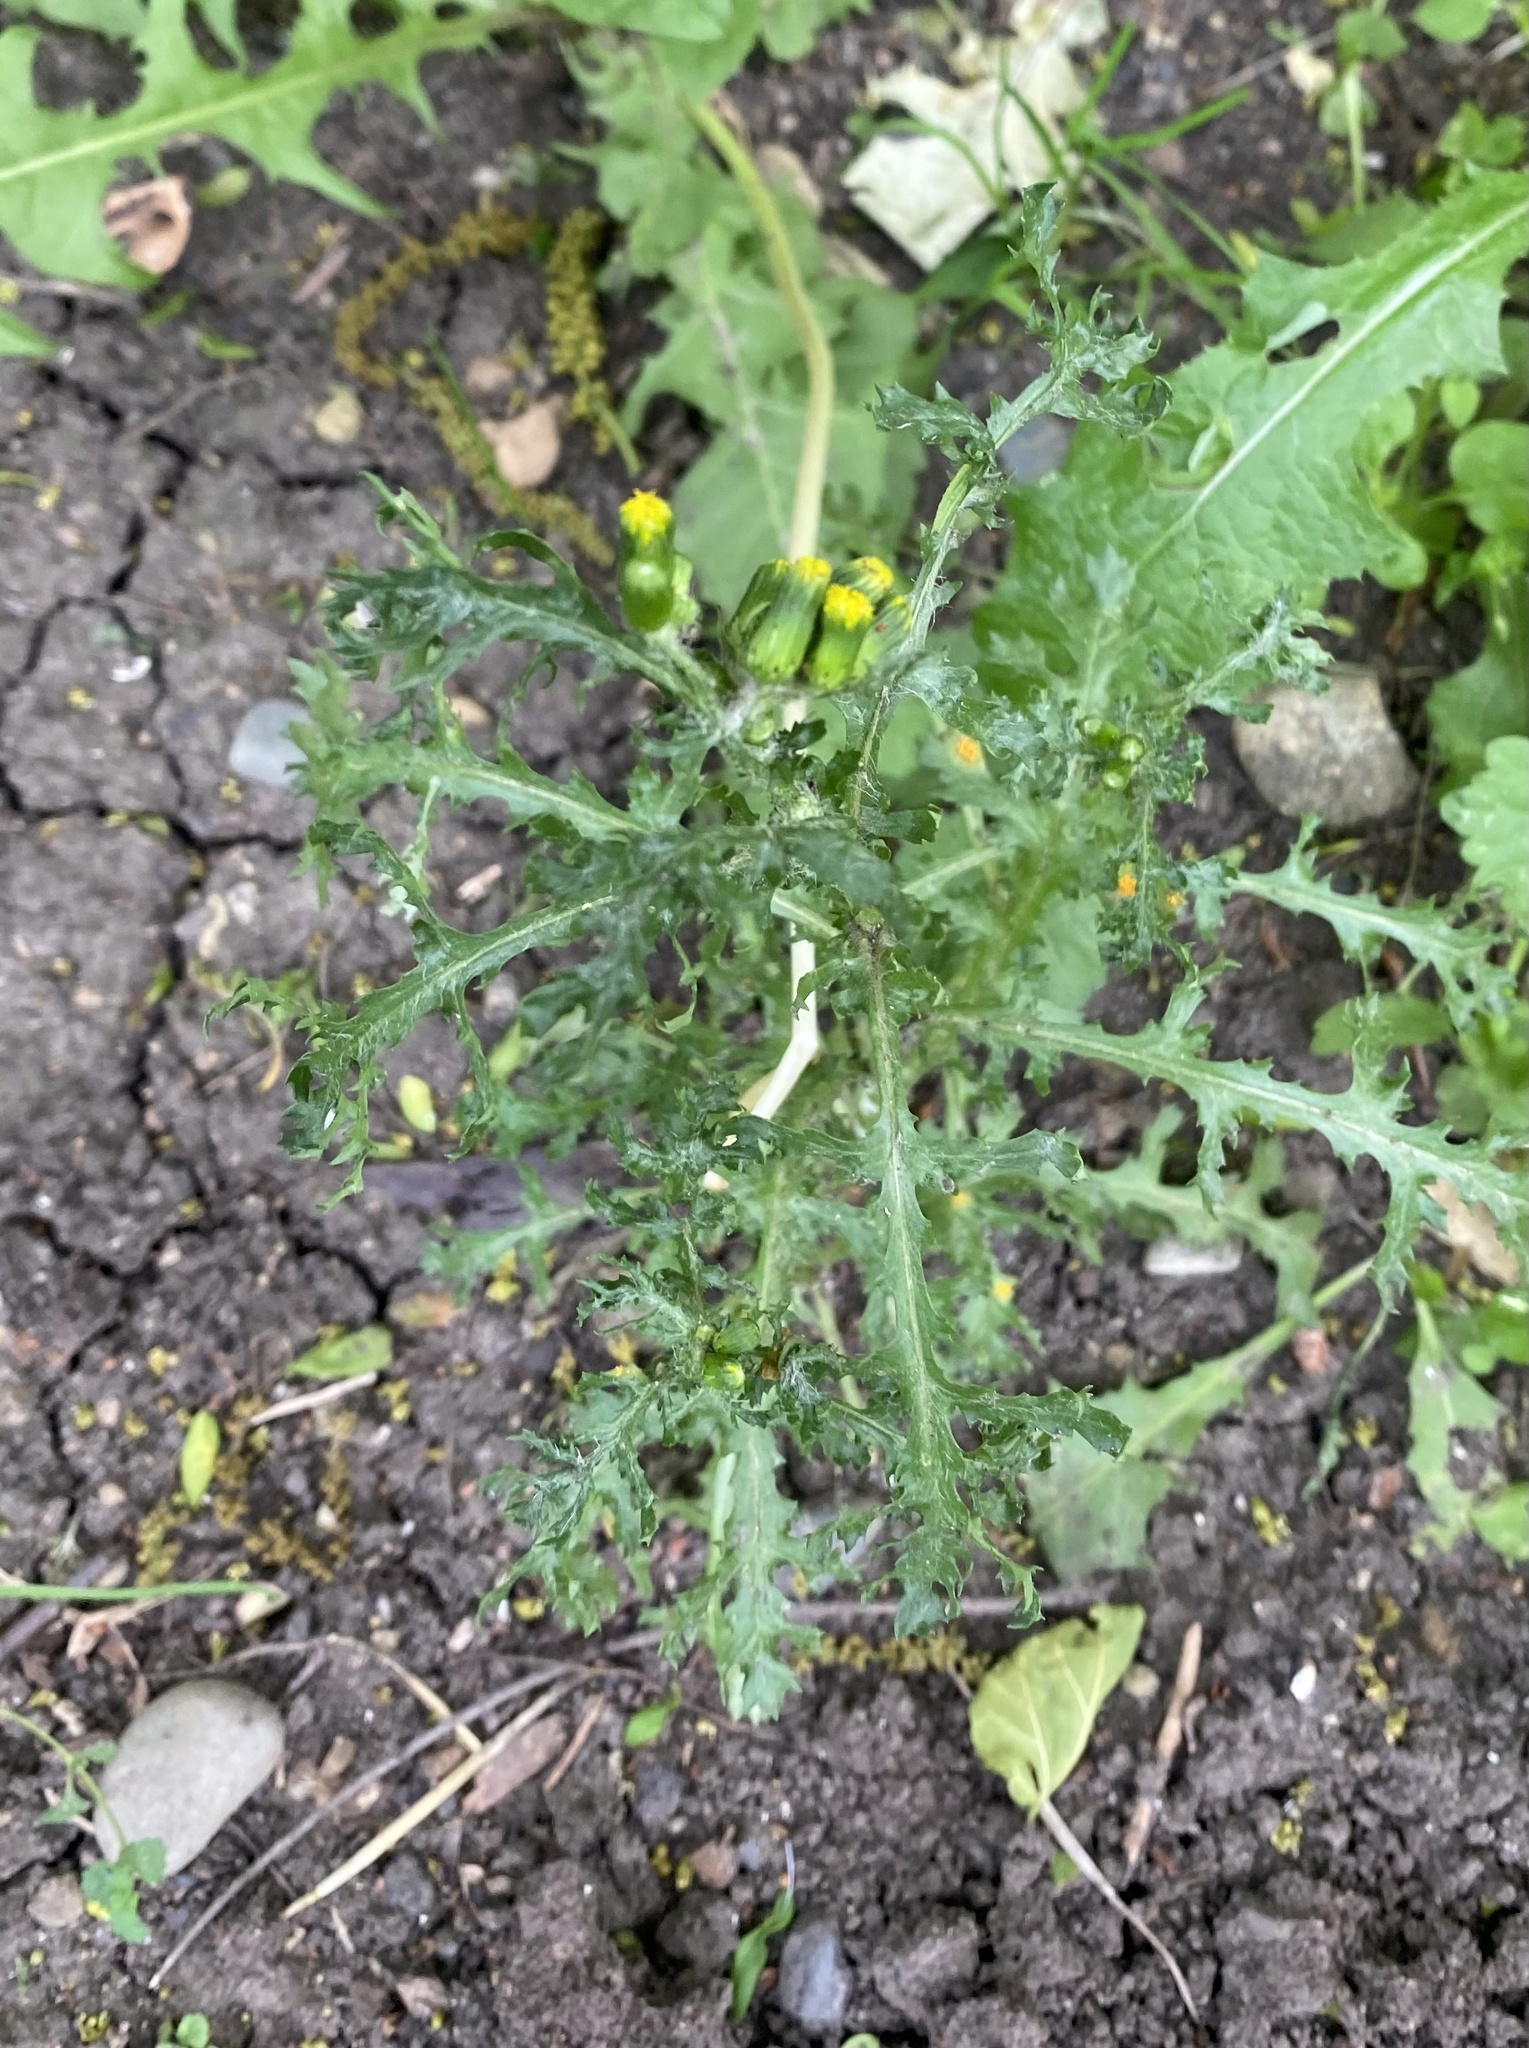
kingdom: Plantae
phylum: Tracheophyta
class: Magnoliopsida
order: Asterales
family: Asteraceae
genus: Senecio
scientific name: Senecio vulgaris
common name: Old-man-in-the-spring
